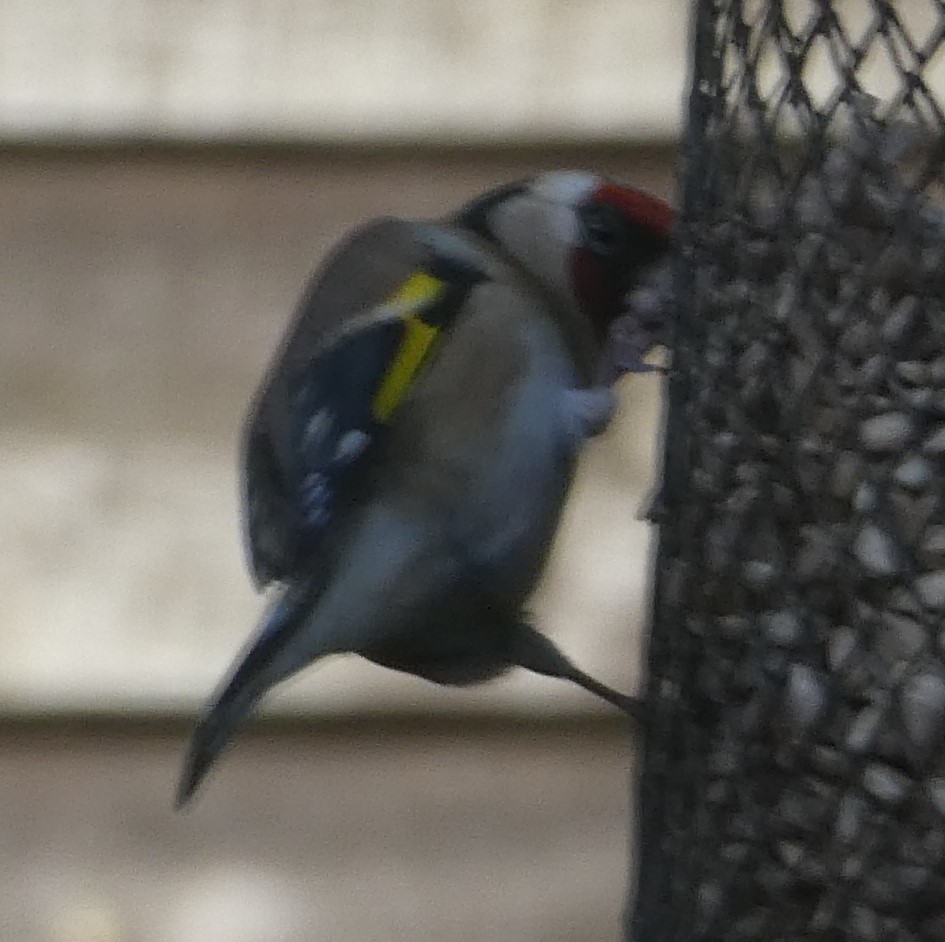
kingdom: Animalia
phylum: Chordata
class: Aves
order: Passeriformes
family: Fringillidae
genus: Carduelis
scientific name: Carduelis carduelis
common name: European goldfinch
